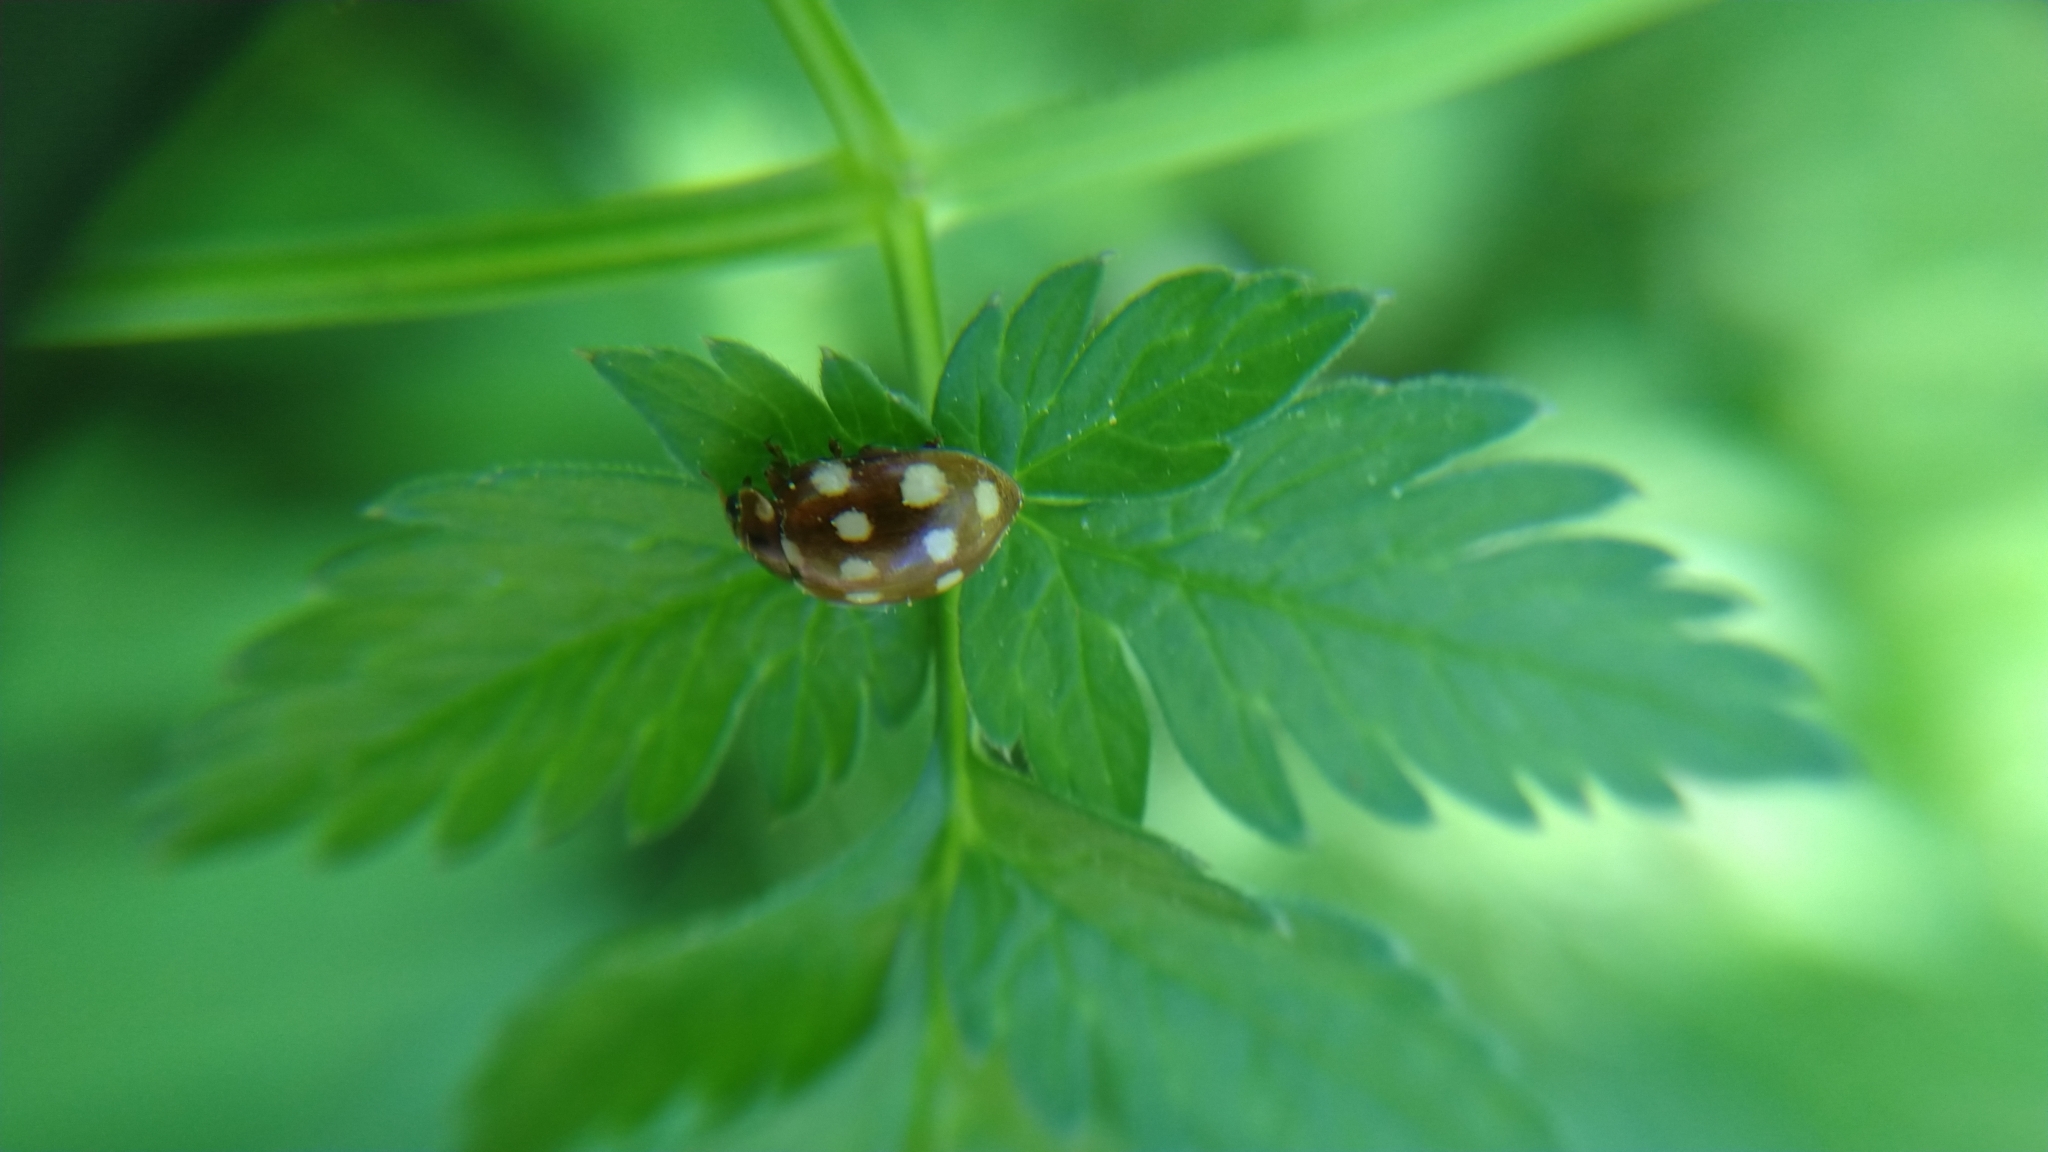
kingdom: Animalia
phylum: Arthropoda
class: Insecta
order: Coleoptera
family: Coccinellidae
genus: Calvia
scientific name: Calvia quatuordecimguttata
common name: Cream-spot ladybird
